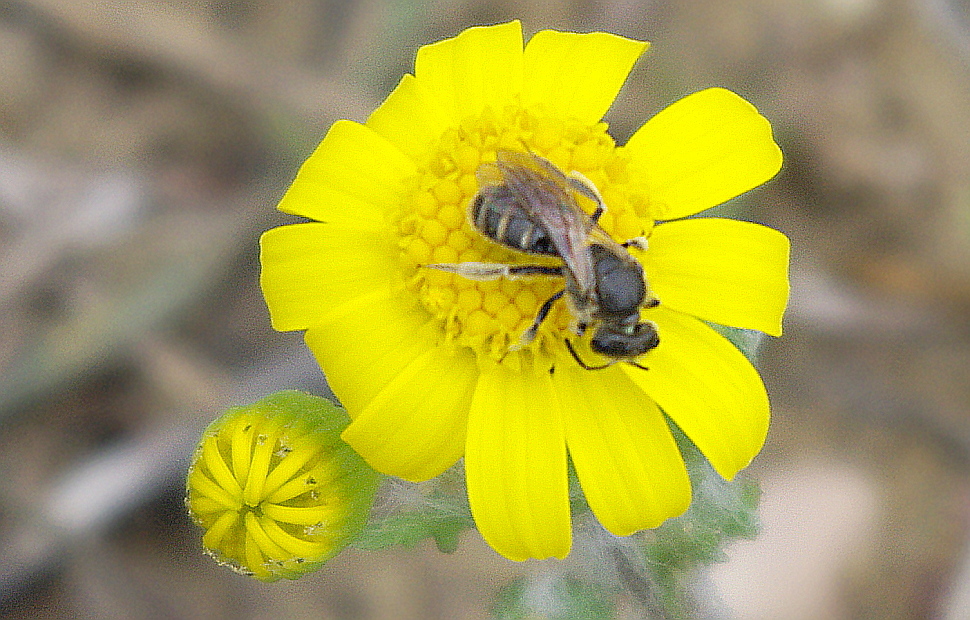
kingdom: Plantae
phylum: Tracheophyta
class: Magnoliopsida
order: Asterales
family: Asteraceae
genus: Senecio
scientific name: Senecio vernalis
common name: Eastern groundsel
